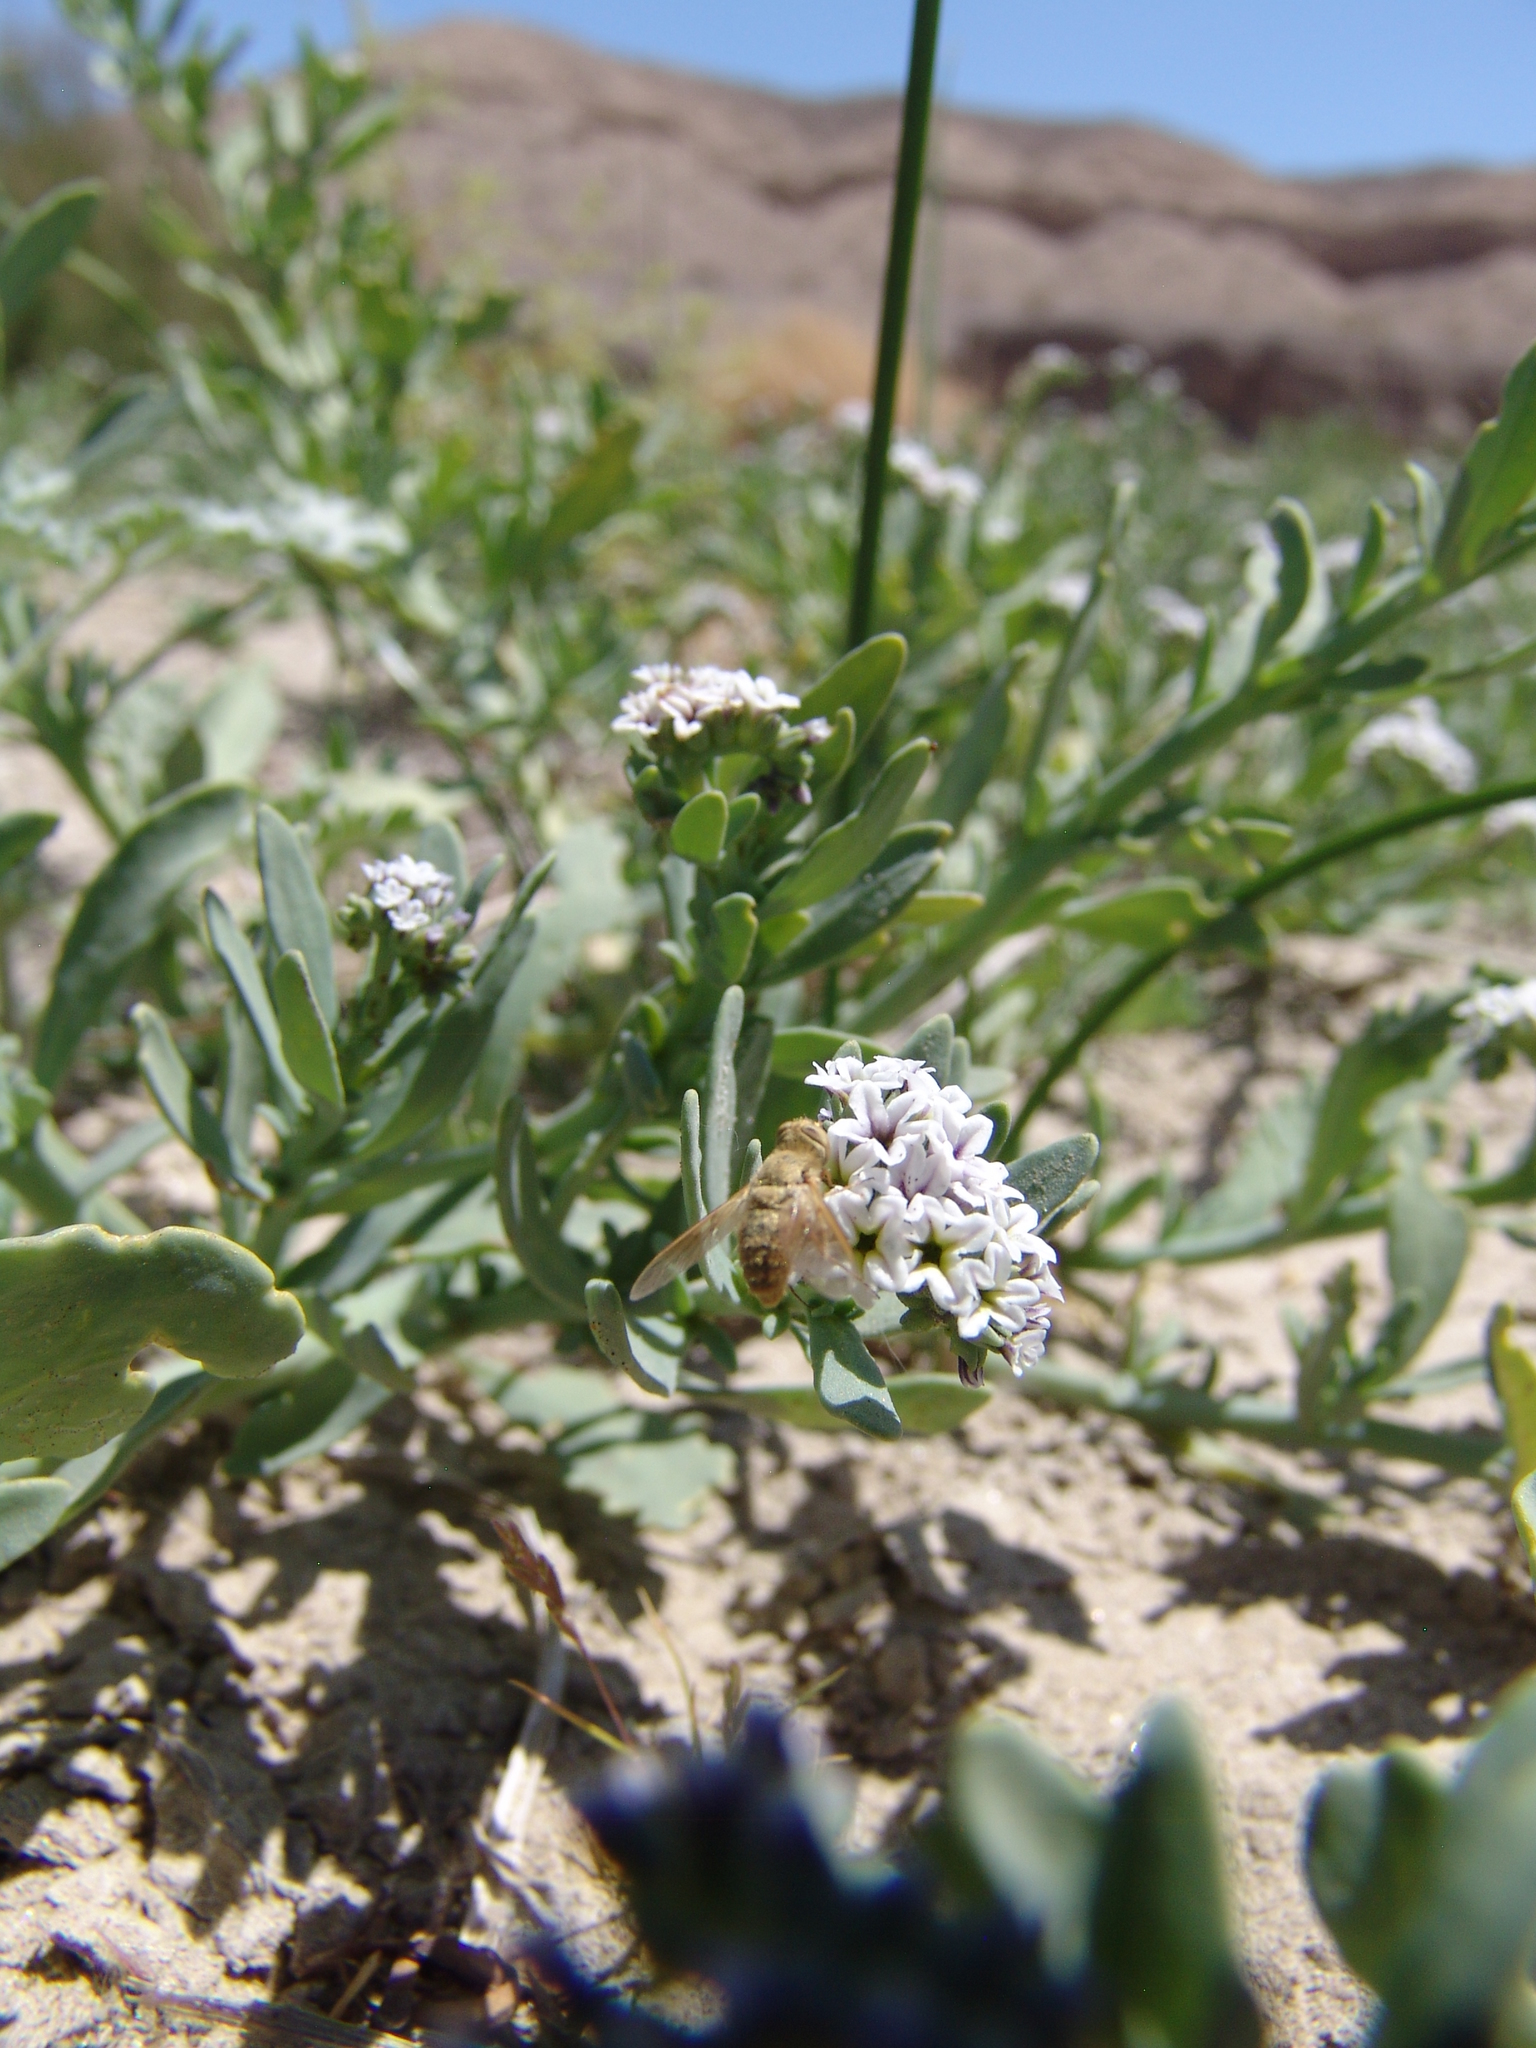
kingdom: Plantae
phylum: Tracheophyta
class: Magnoliopsida
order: Boraginales
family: Heliotropiaceae
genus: Heliotropium
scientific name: Heliotropium curassavicum
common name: Seaside heliotrope
